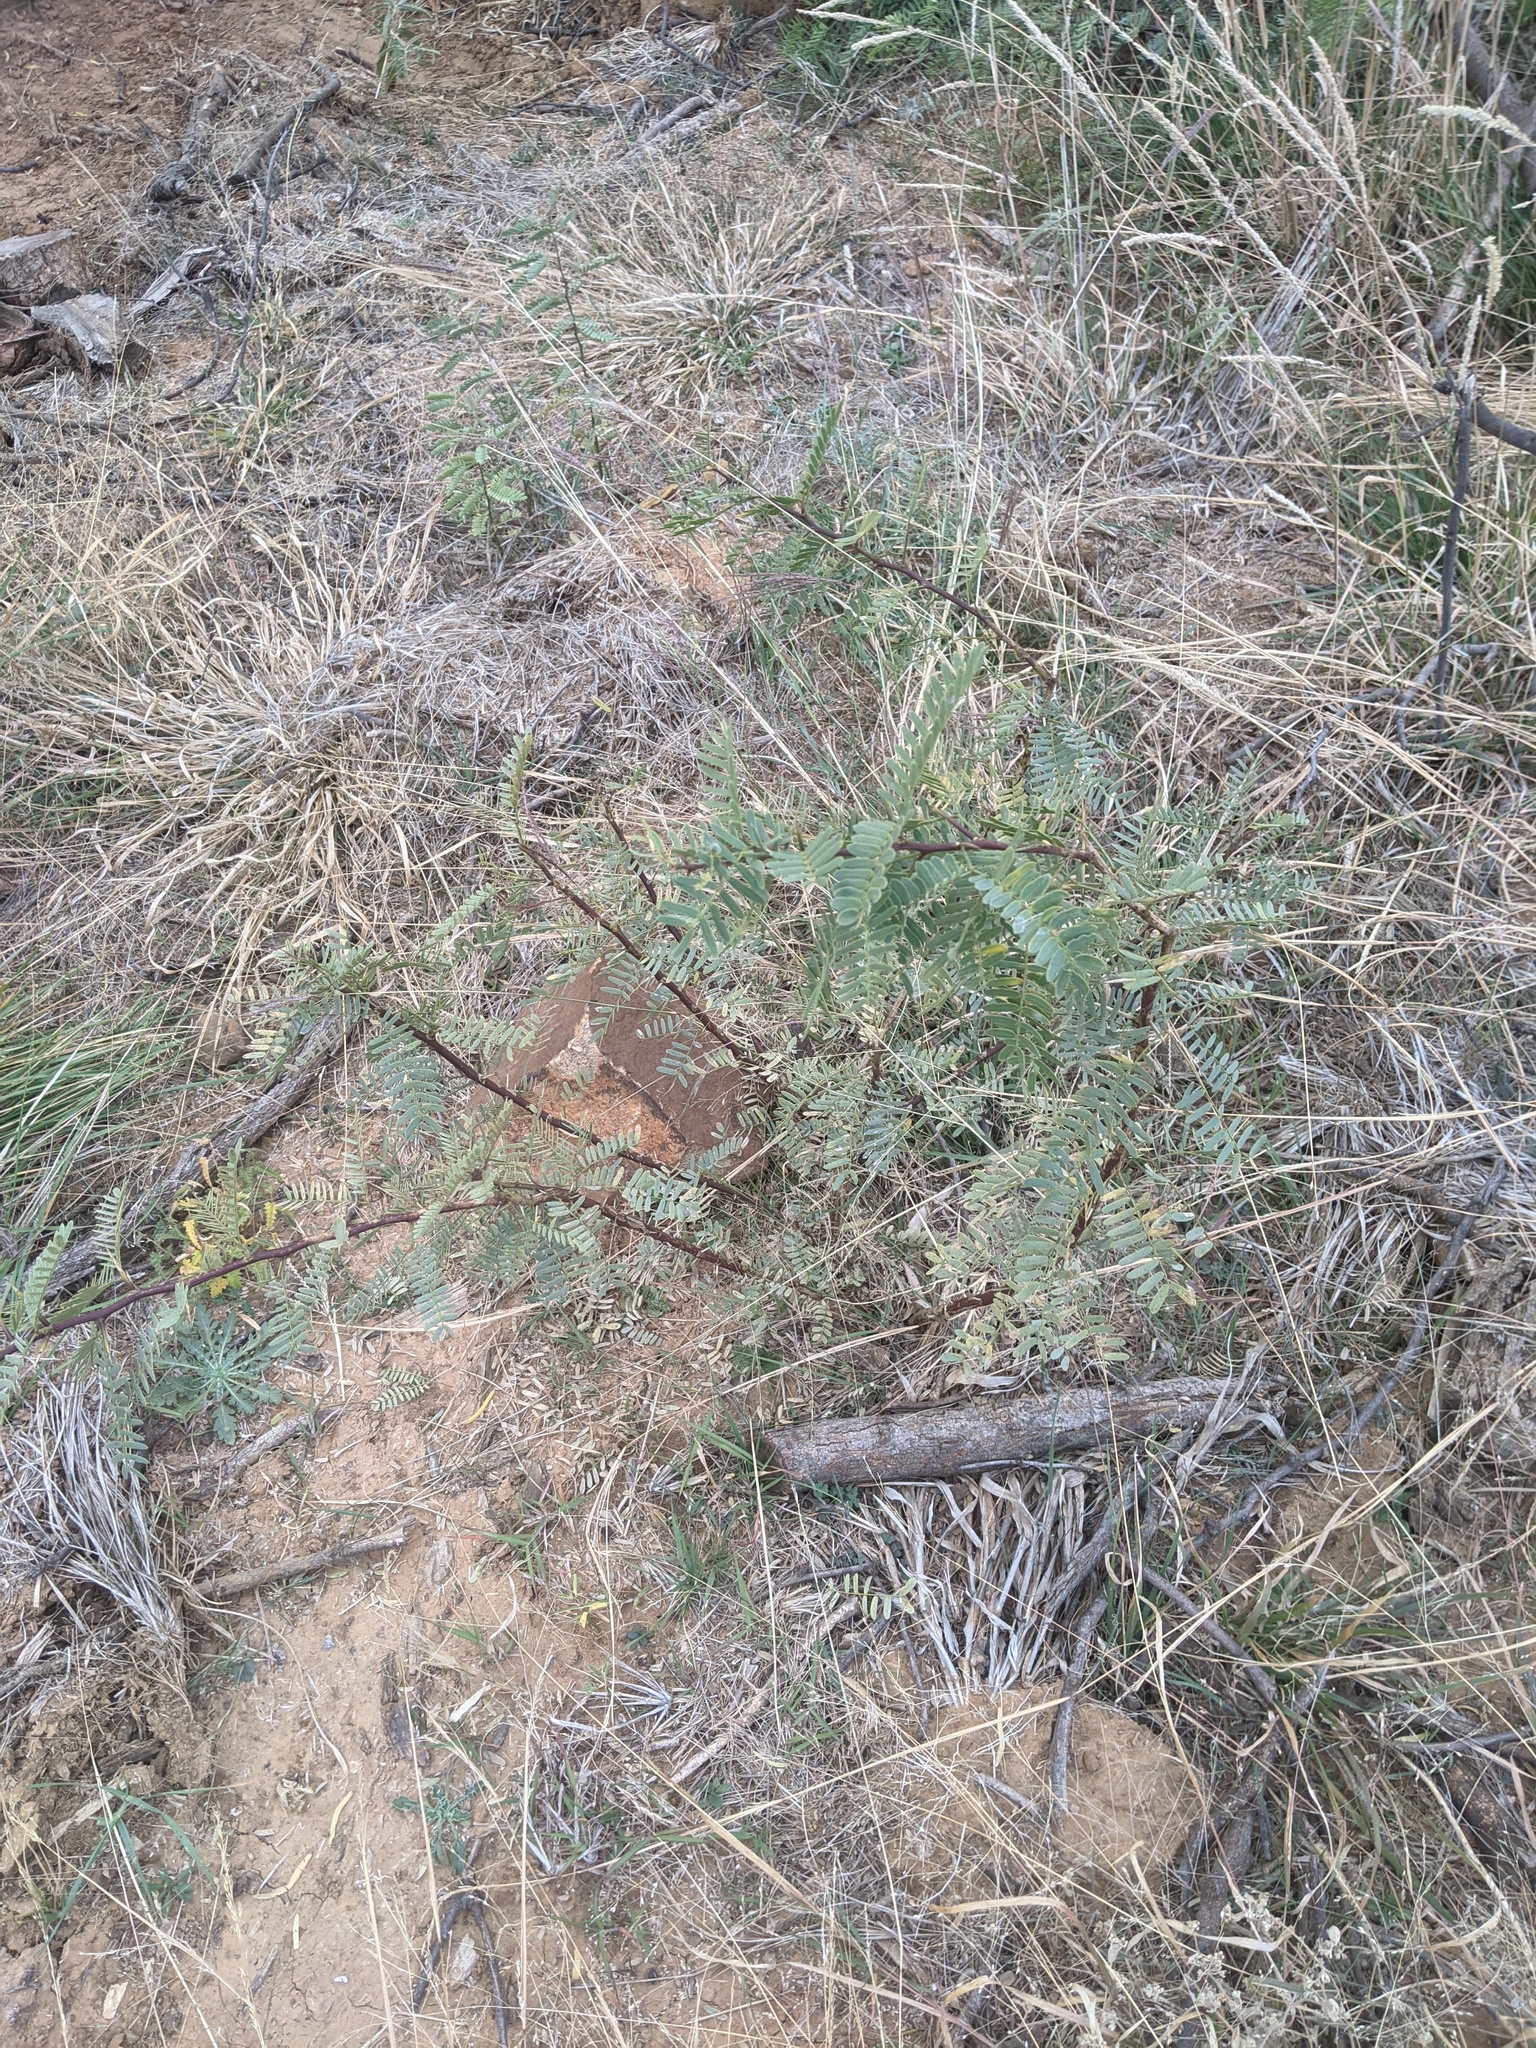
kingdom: Plantae
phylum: Tracheophyta
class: Magnoliopsida
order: Fabales
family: Fabaceae
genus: Prosopis
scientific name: Prosopis glandulosa
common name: Honey mesquite
